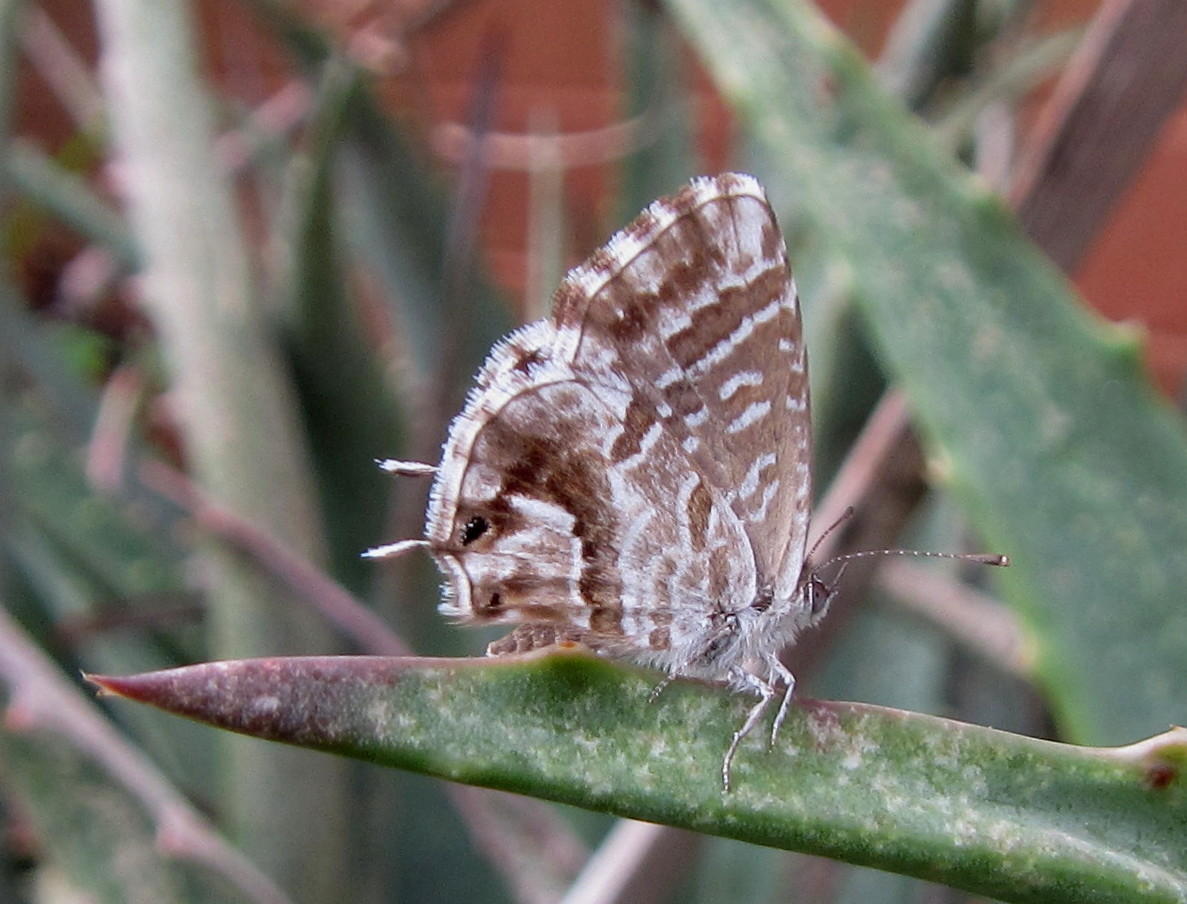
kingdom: Animalia
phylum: Arthropoda
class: Insecta
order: Lepidoptera
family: Lycaenidae
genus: Cacyreus
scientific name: Cacyreus marshalli
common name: Geranium bronze
